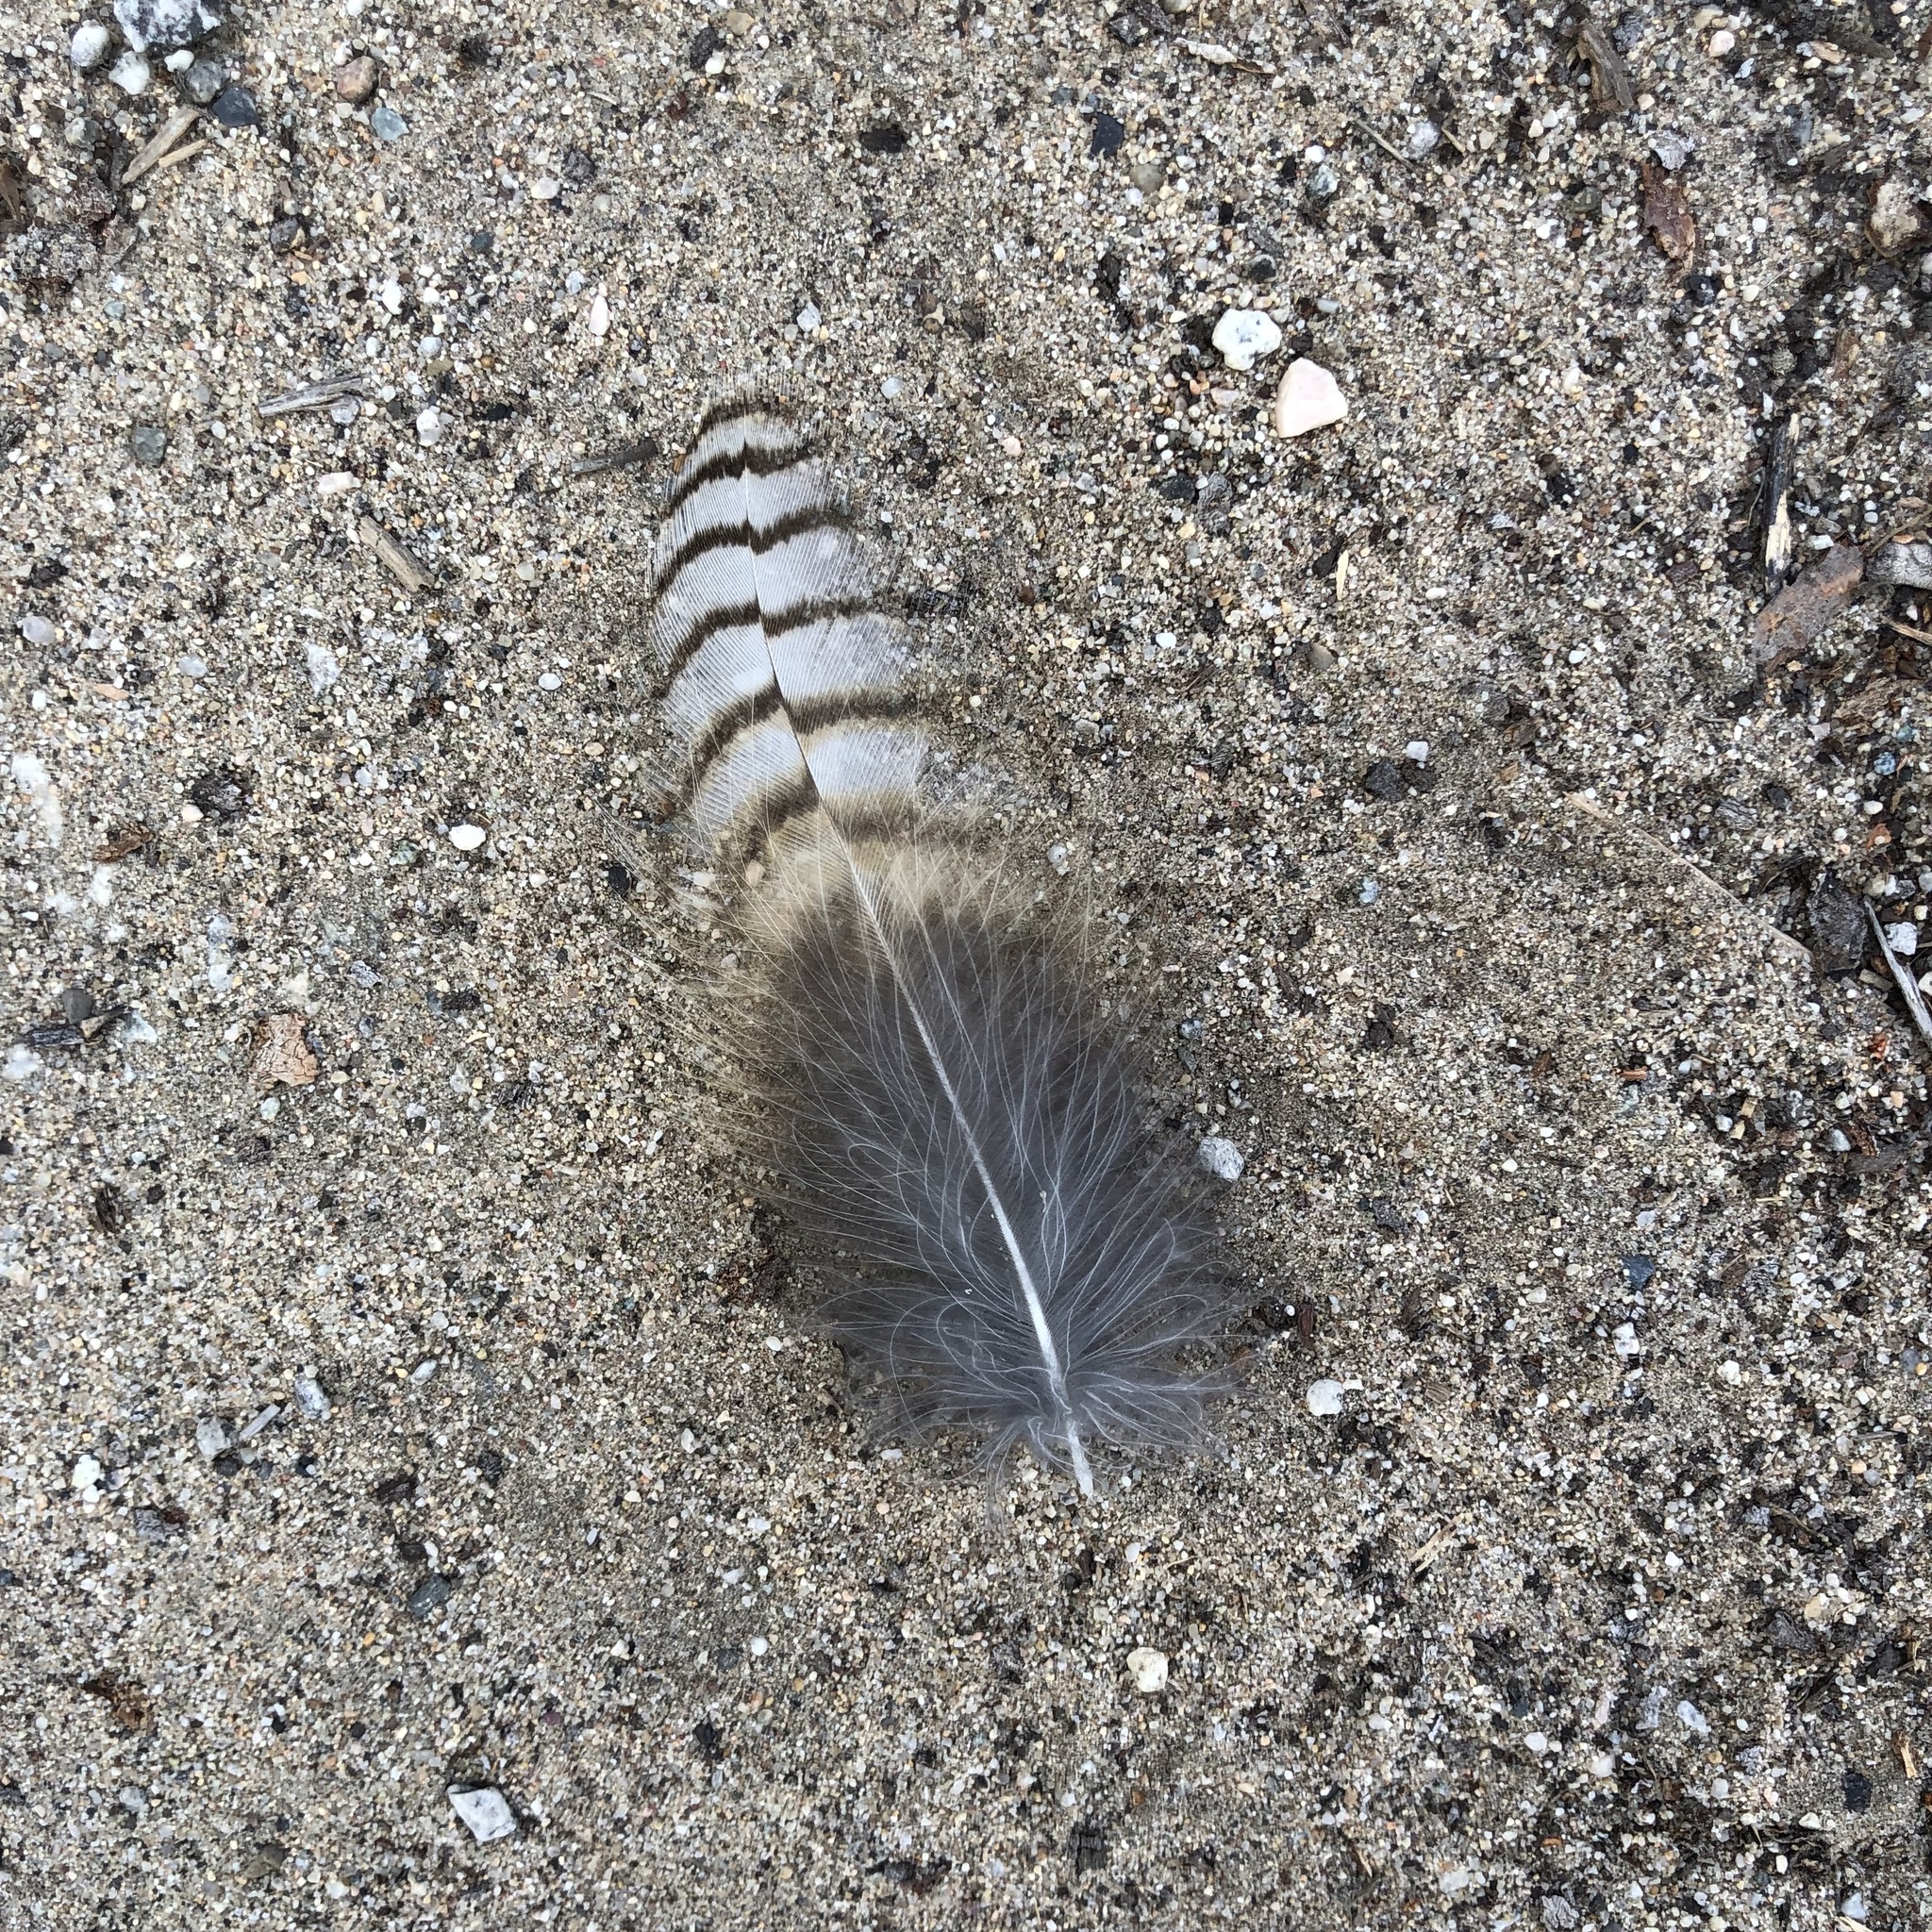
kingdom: Animalia
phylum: Chordata
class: Aves
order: Strigiformes
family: Strigidae
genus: Bubo
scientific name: Bubo virginianus
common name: Great horned owl
